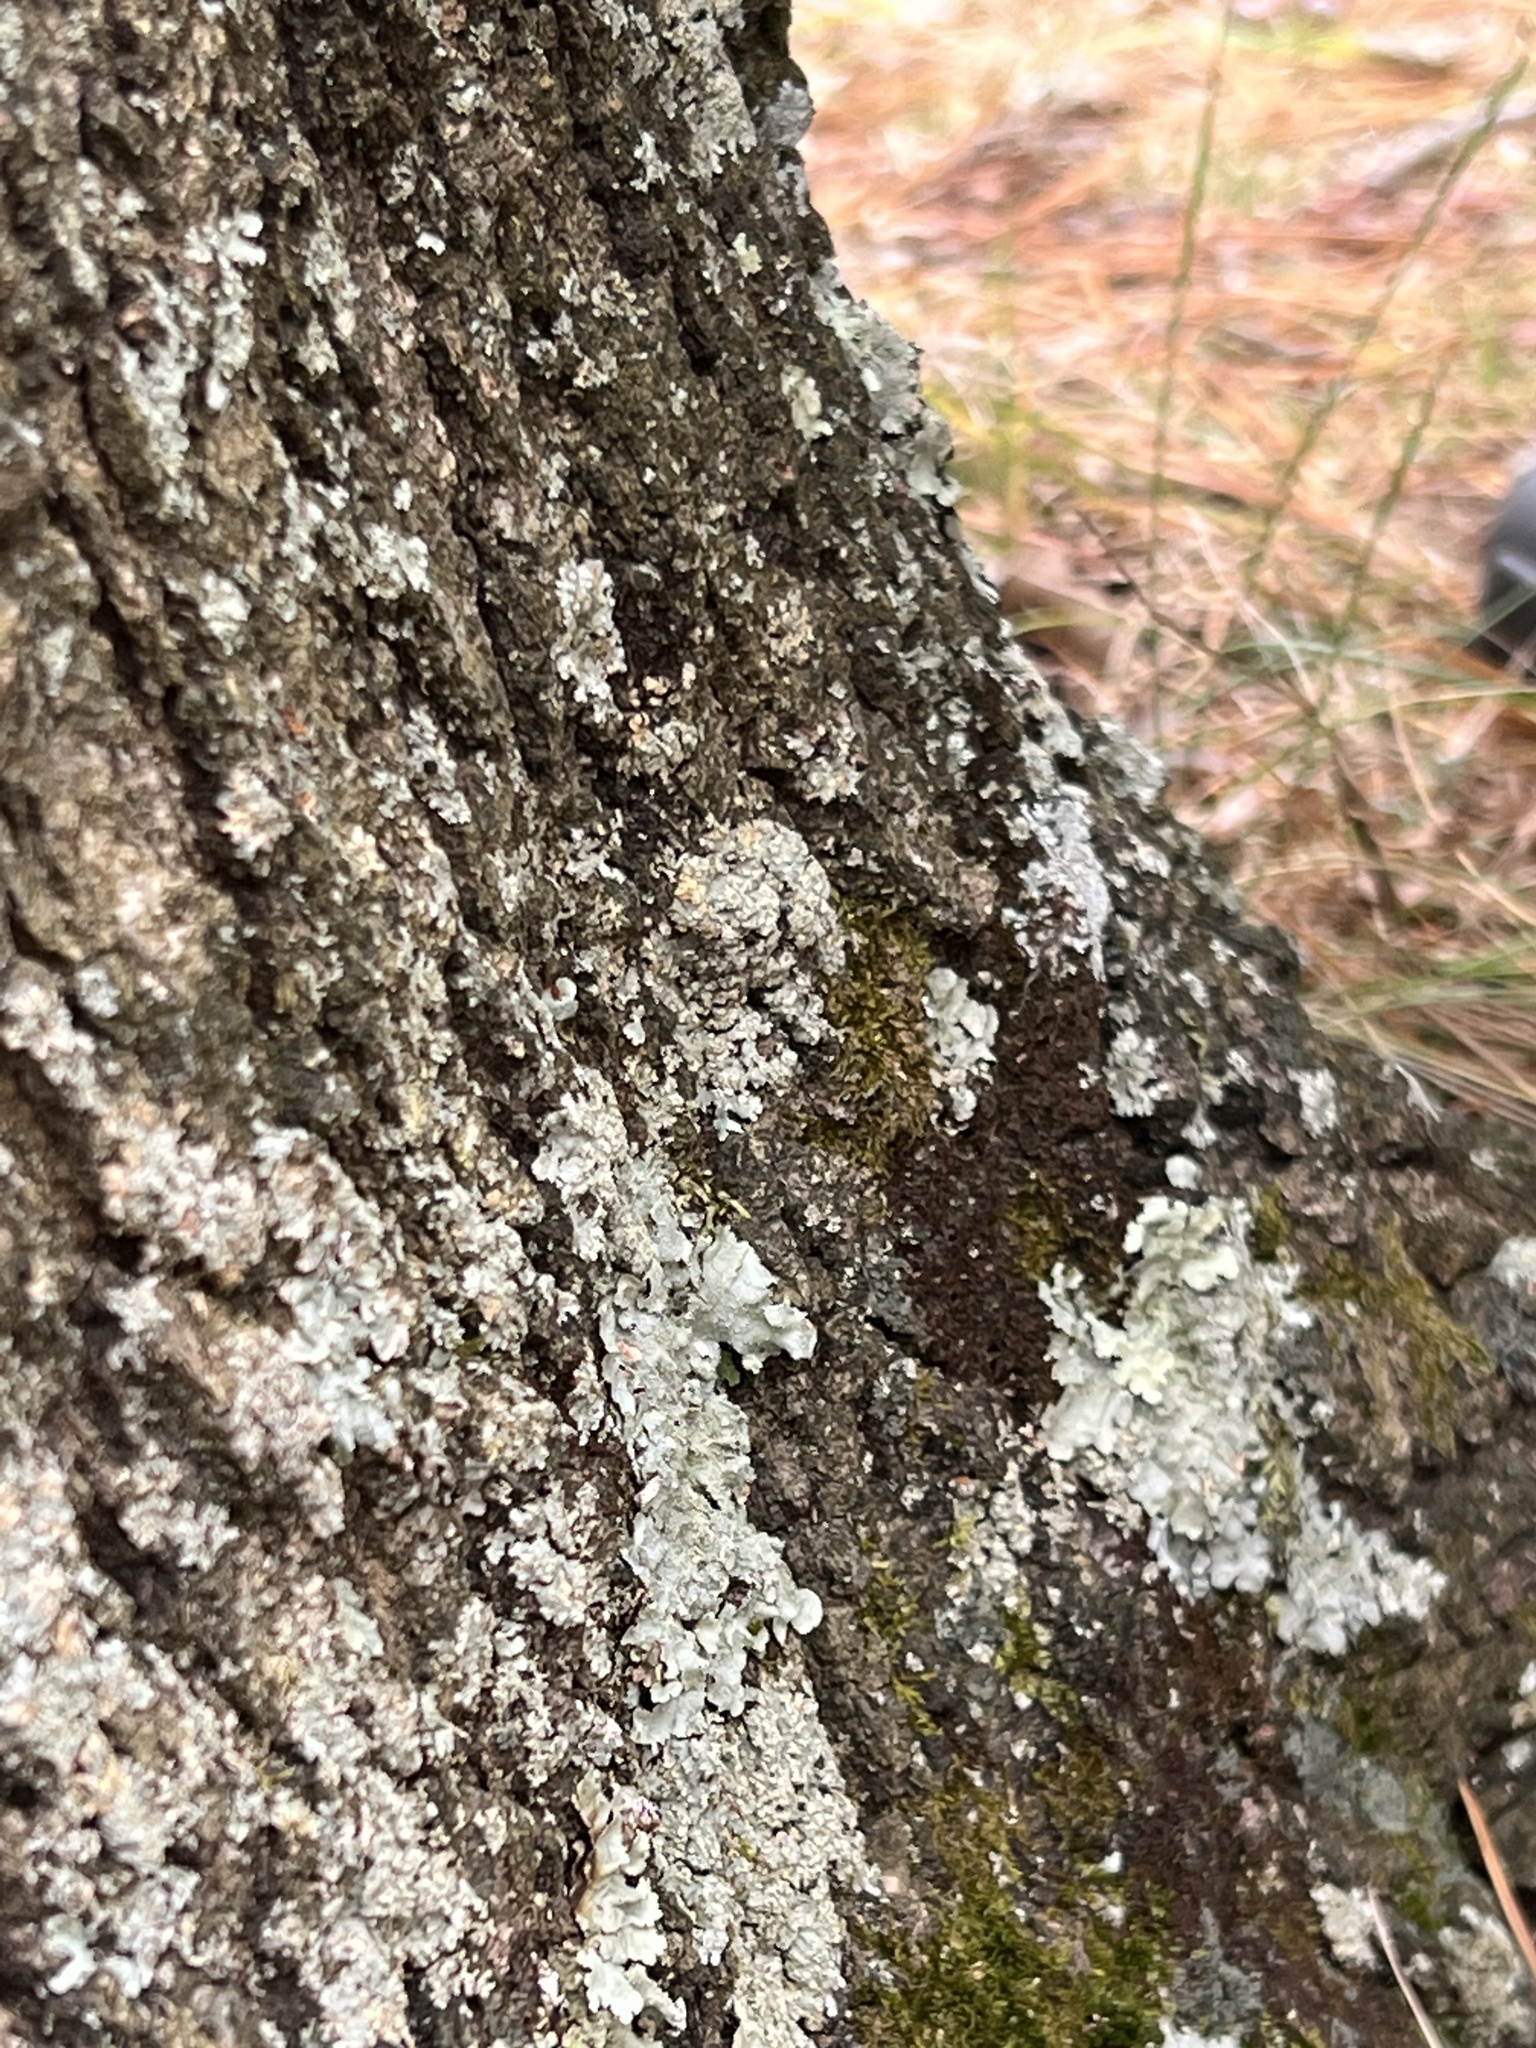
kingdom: Fungi
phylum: Ascomycota
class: Lecanoromycetes
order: Caliciales
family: Caliciaceae
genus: Pyxine
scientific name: Pyxine subcinerea
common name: Mustard lichen
